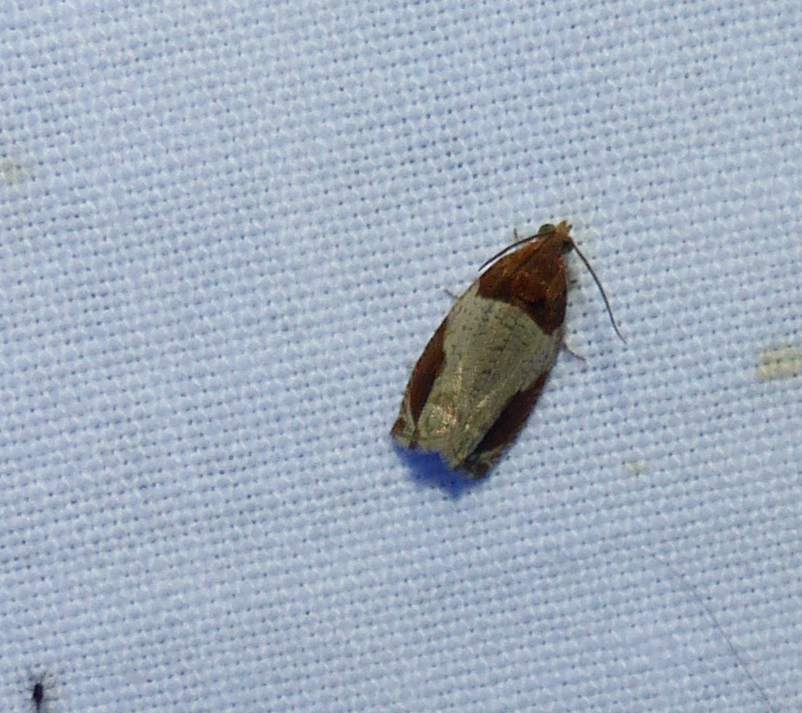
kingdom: Animalia
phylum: Arthropoda
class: Insecta
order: Lepidoptera
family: Tortricidae
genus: Olethreutes
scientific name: Olethreutes ferriferana
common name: Hydrangea leaftier moth
